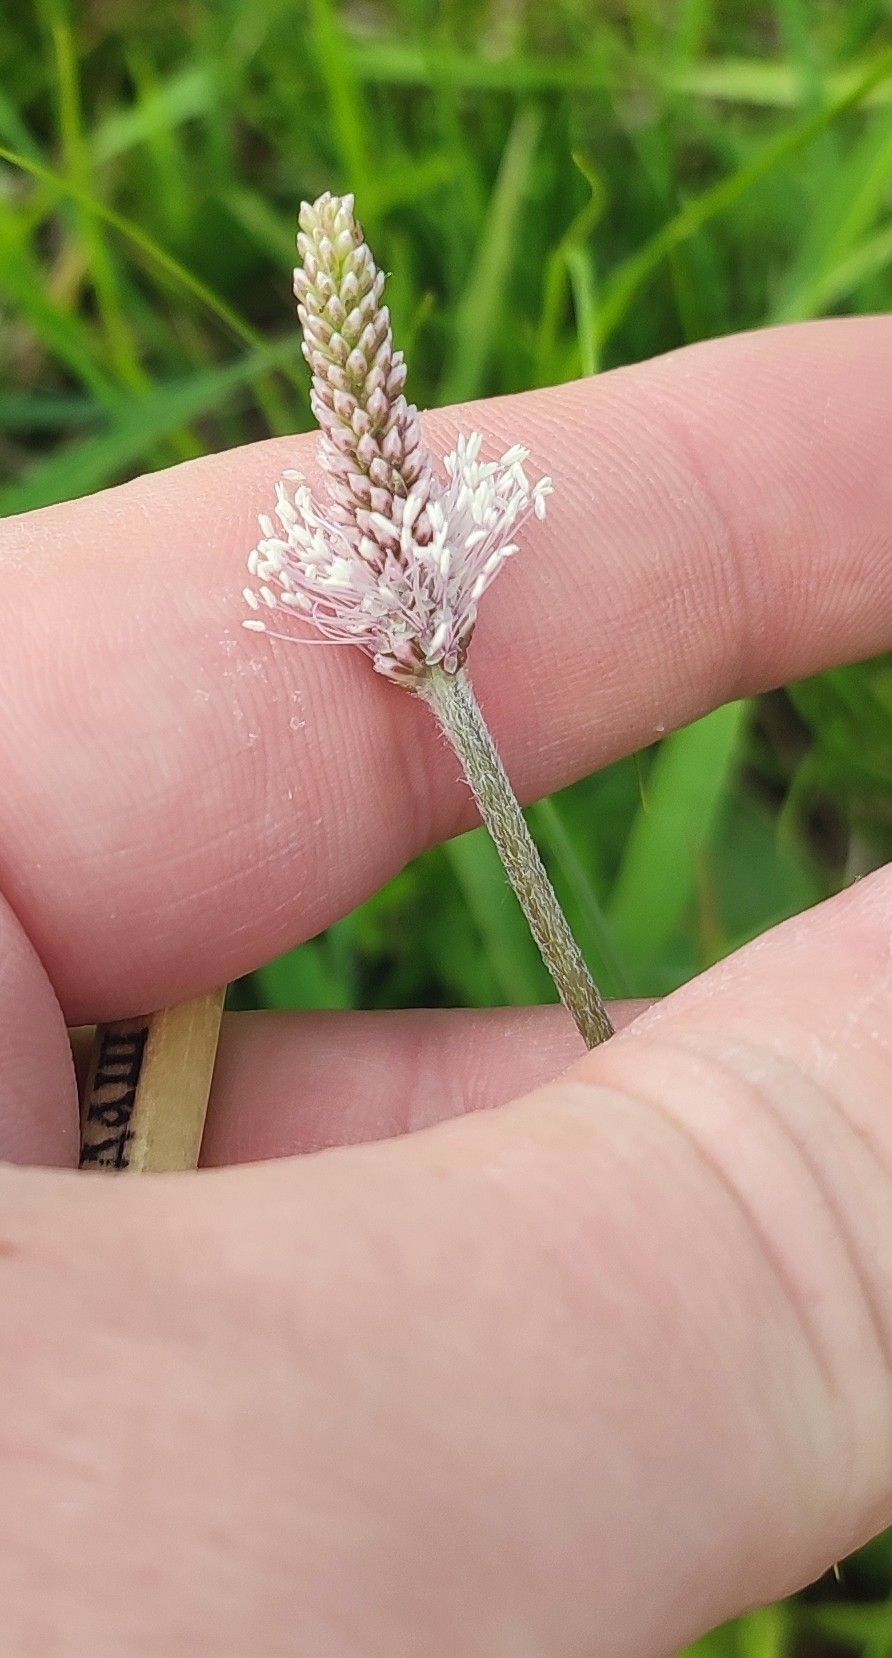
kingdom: Plantae
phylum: Tracheophyta
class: Magnoliopsida
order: Lamiales
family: Plantaginaceae
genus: Plantago
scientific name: Plantago media
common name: Hoary plantain
